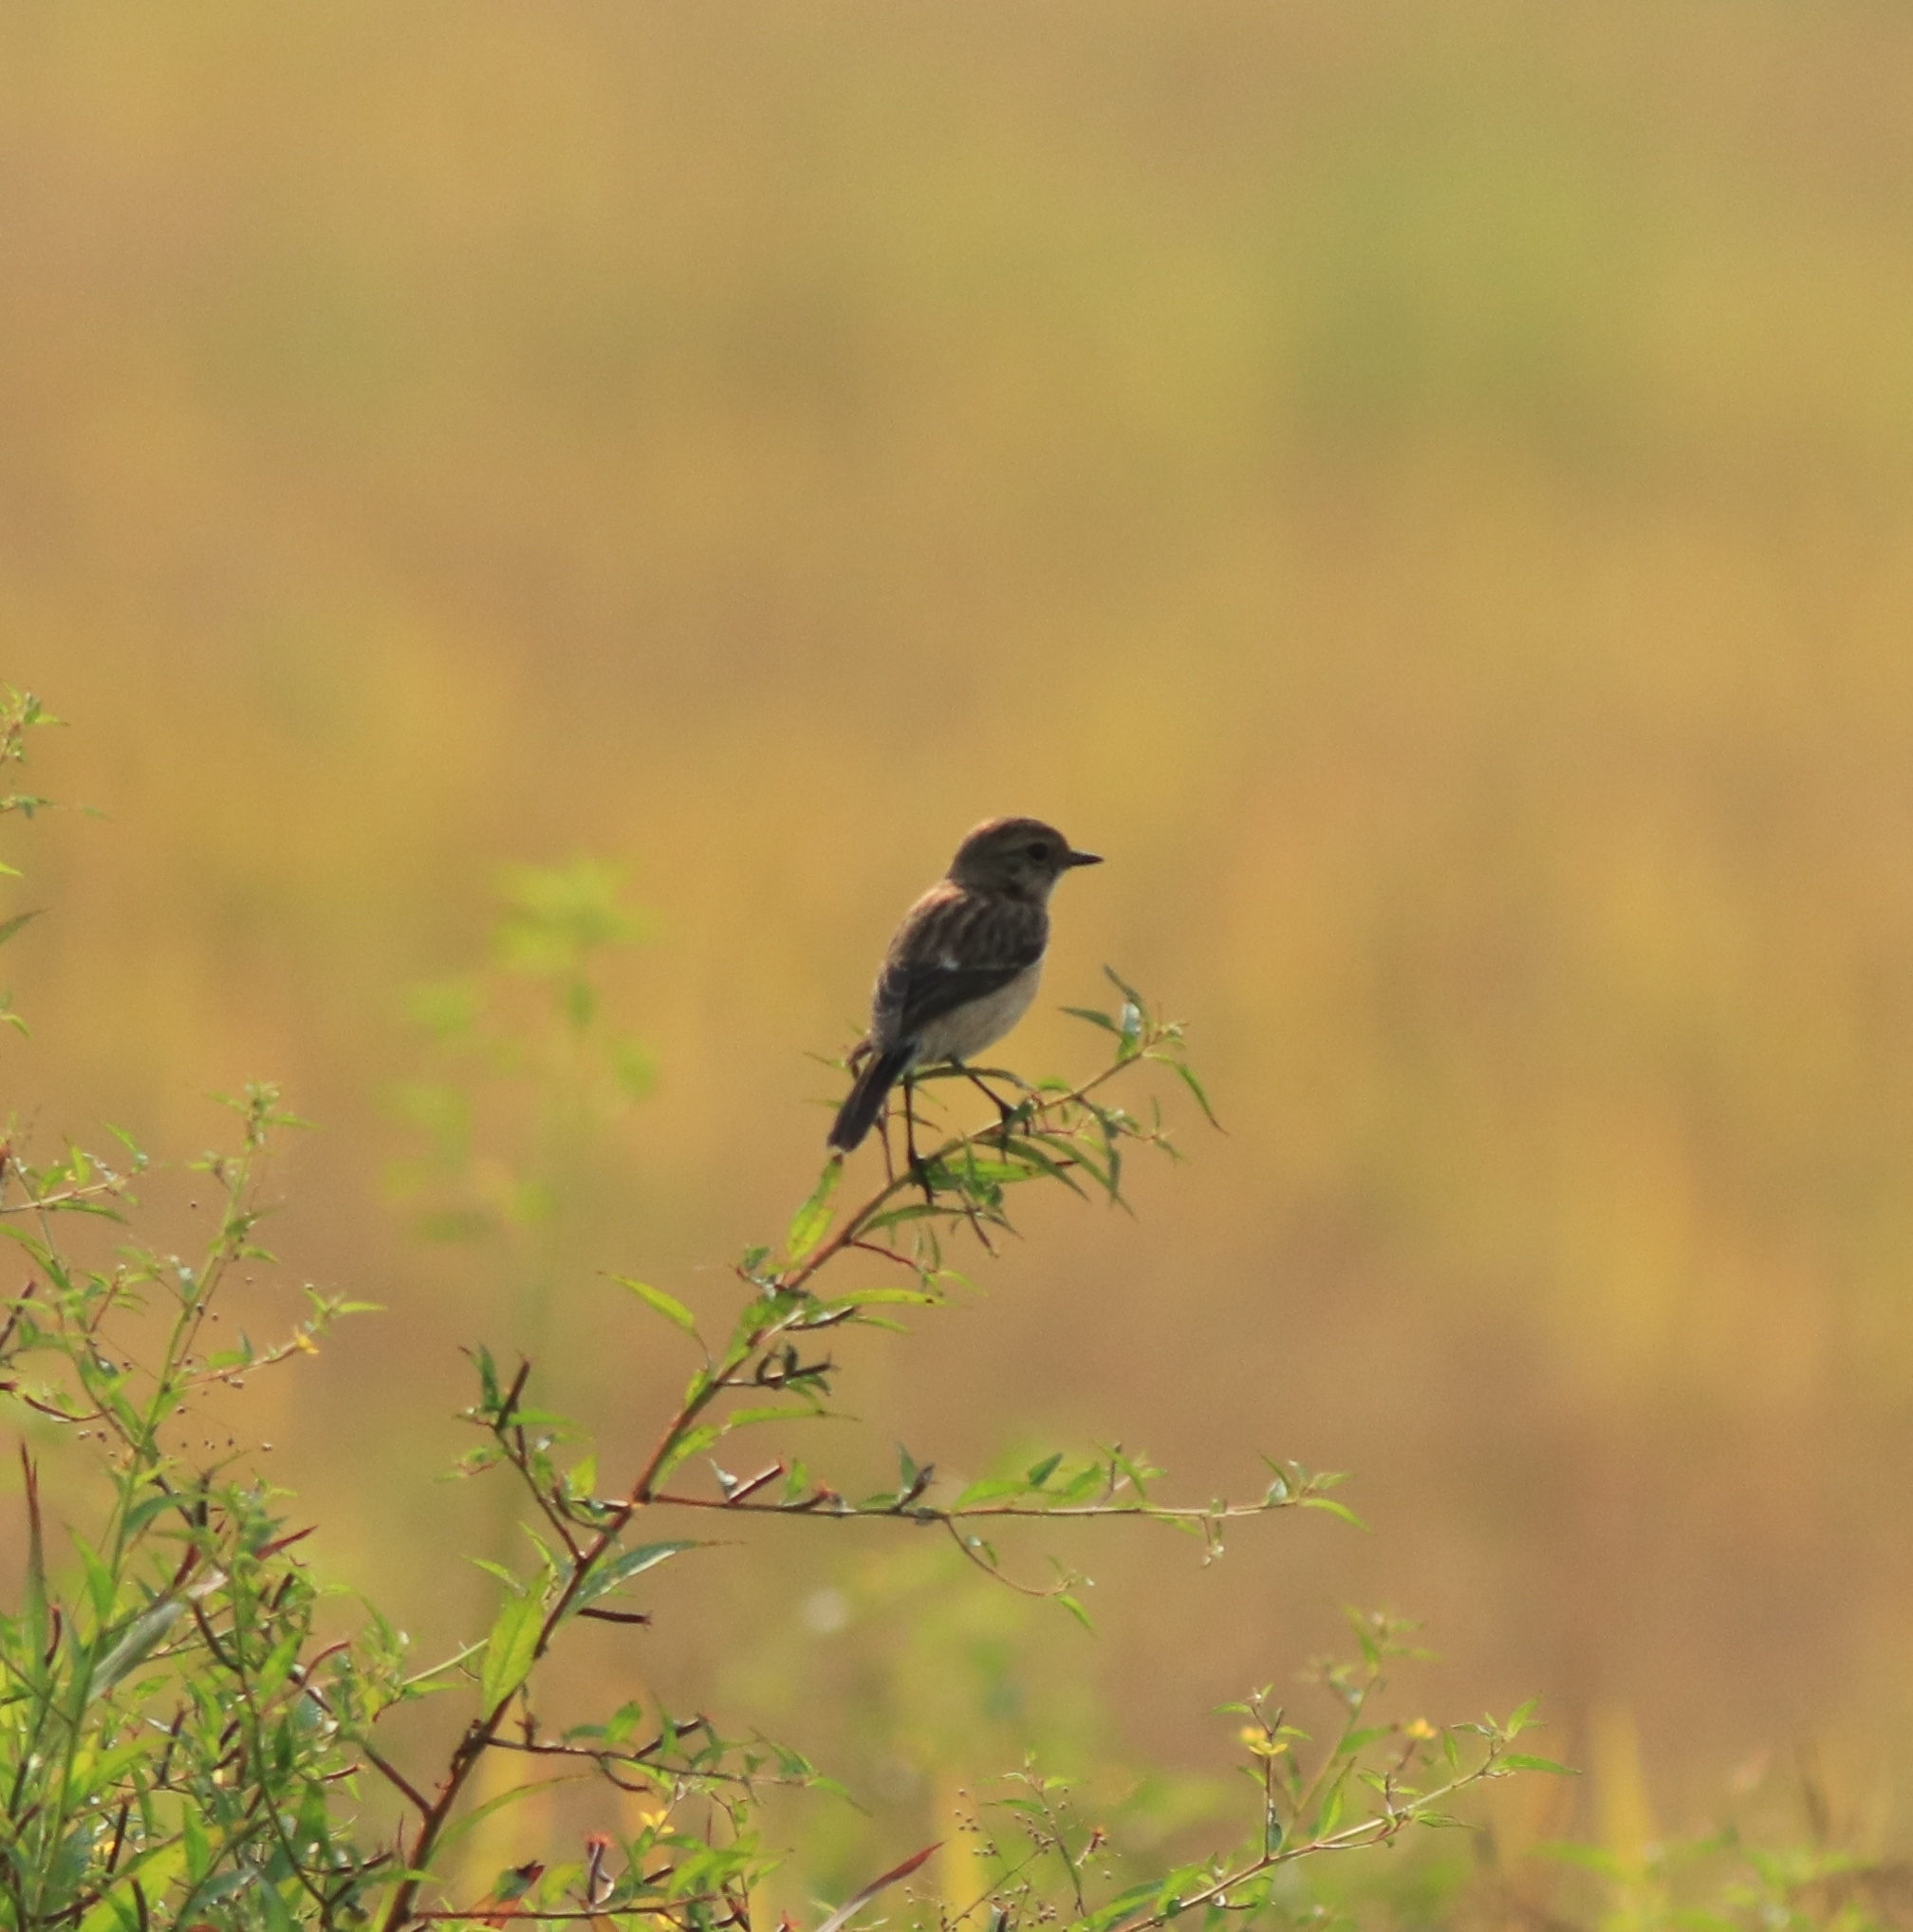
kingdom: Animalia
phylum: Chordata
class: Aves
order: Passeriformes
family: Muscicapidae
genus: Saxicola
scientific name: Saxicola maurus
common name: Siberian stonechat
